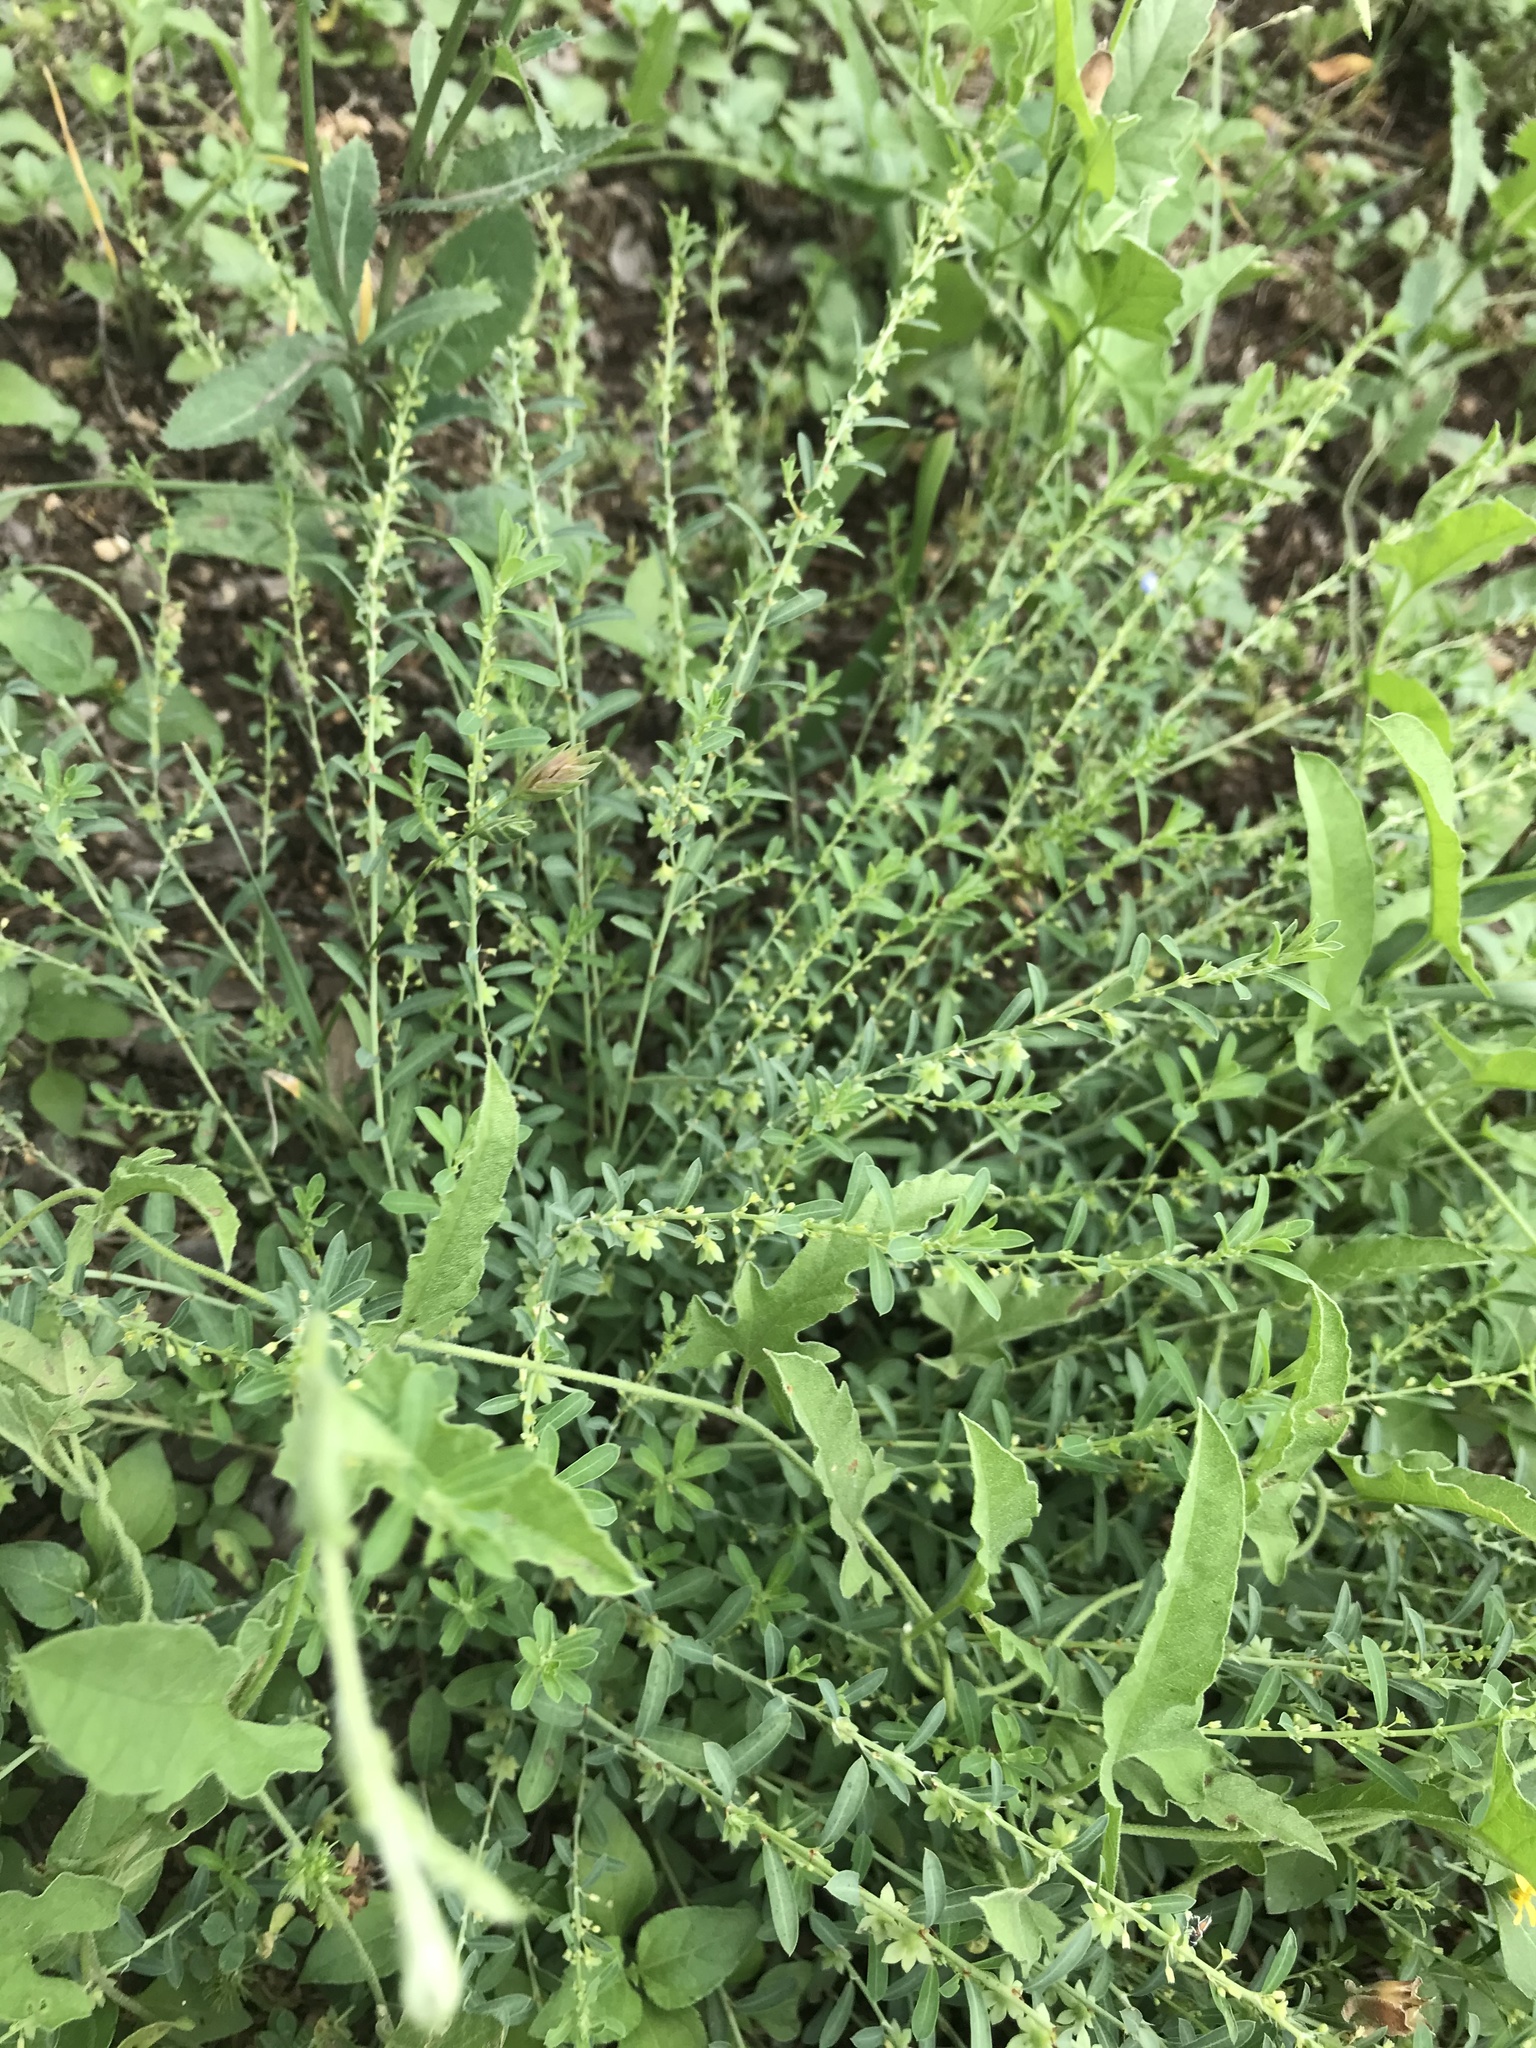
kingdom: Plantae
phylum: Tracheophyta
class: Magnoliopsida
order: Malpighiales
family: Phyllanthaceae
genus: Phyllanthus
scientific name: Phyllanthus polygonoides
